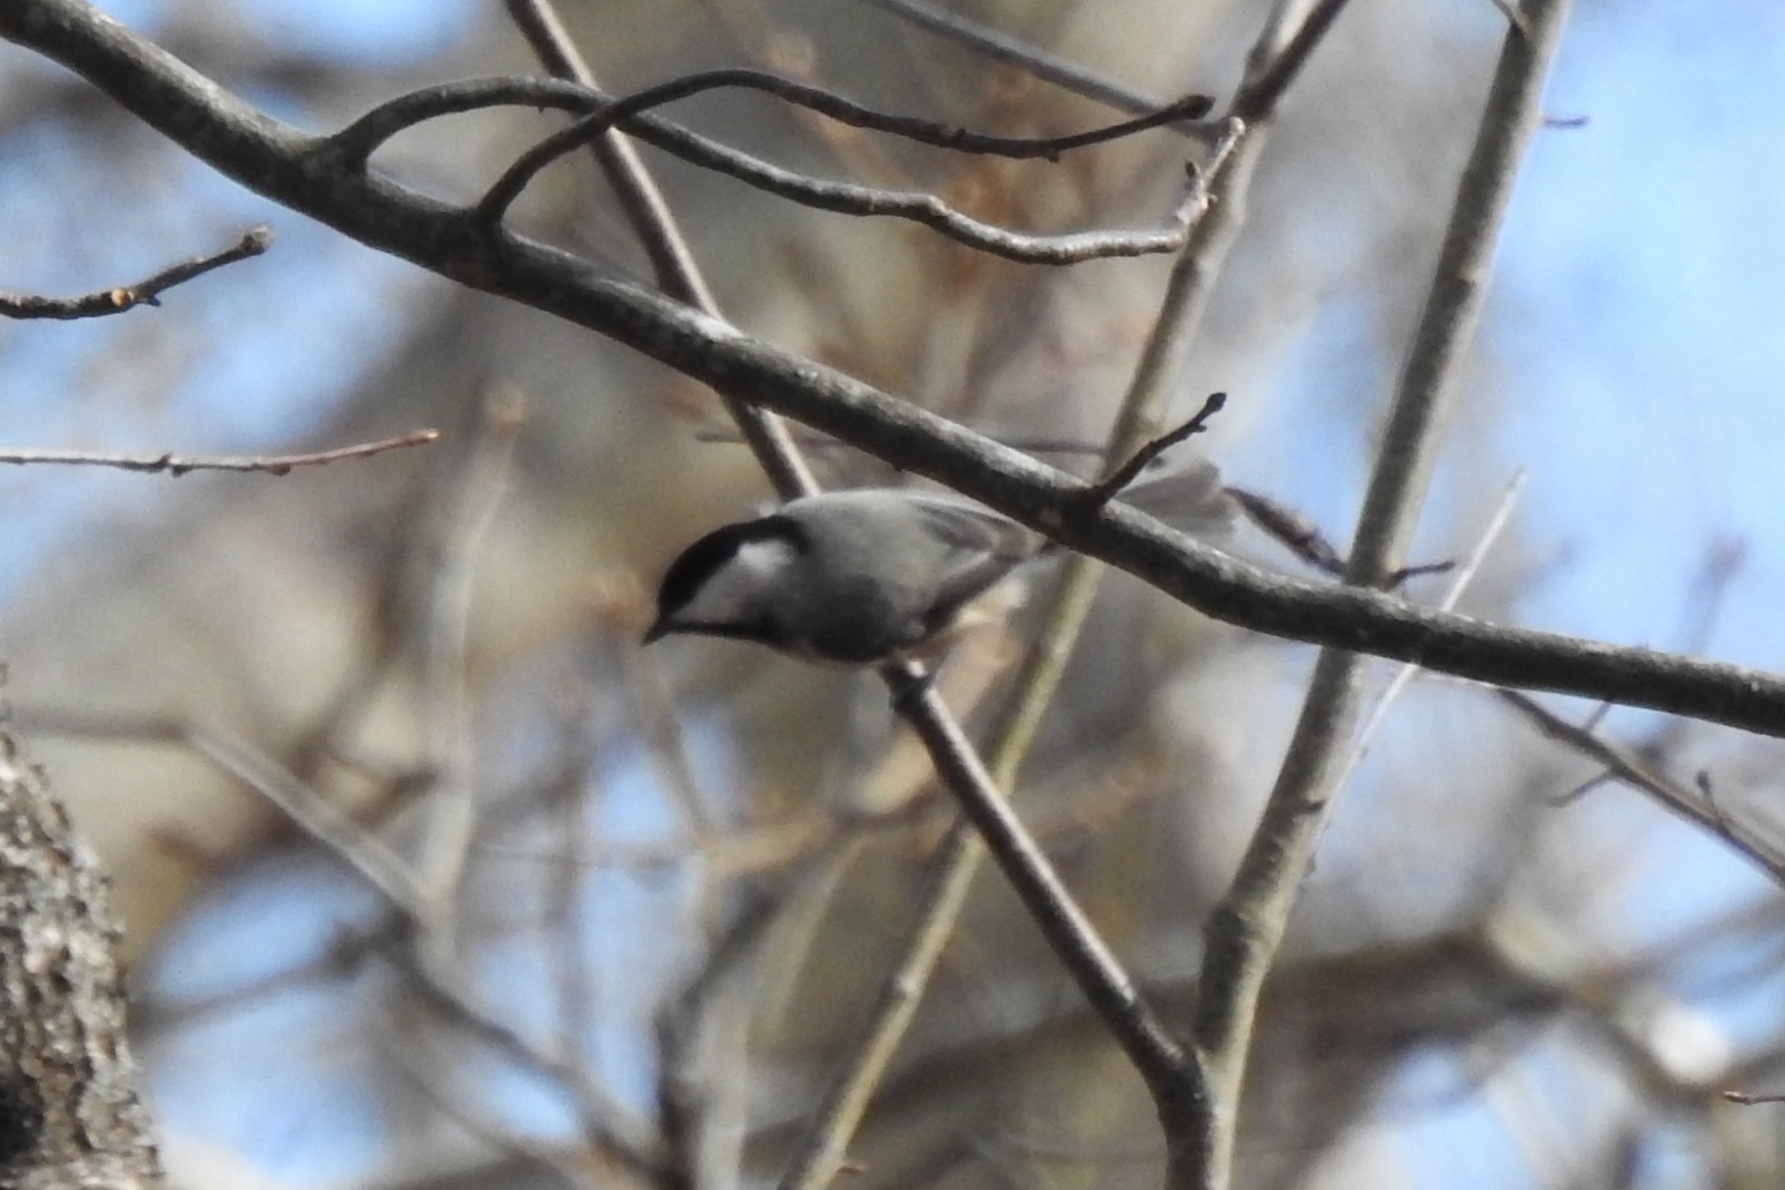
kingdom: Animalia
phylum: Chordata
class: Aves
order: Passeriformes
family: Paridae
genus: Poecile
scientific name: Poecile carolinensis
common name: Carolina chickadee
